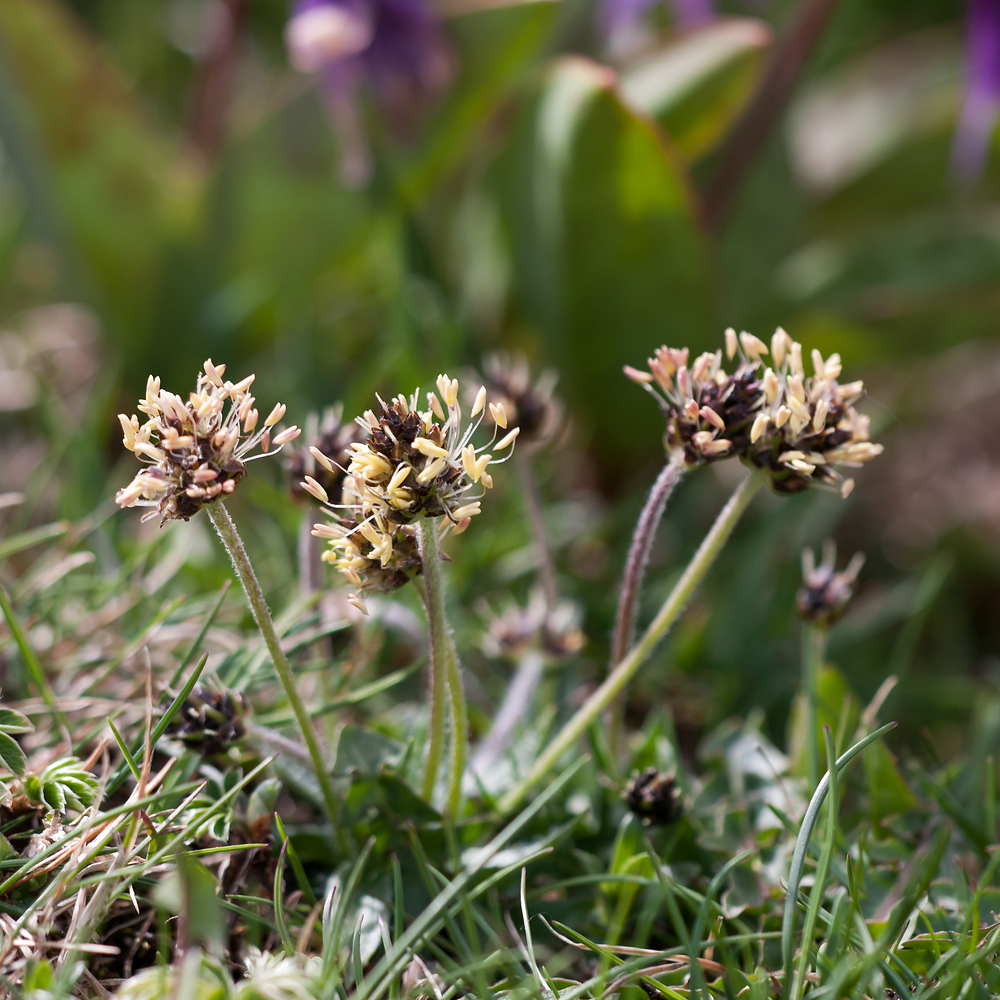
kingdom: Plantae
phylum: Tracheophyta
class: Magnoliopsida
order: Lamiales
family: Plantaginaceae
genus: Plantago
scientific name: Plantago atrata
